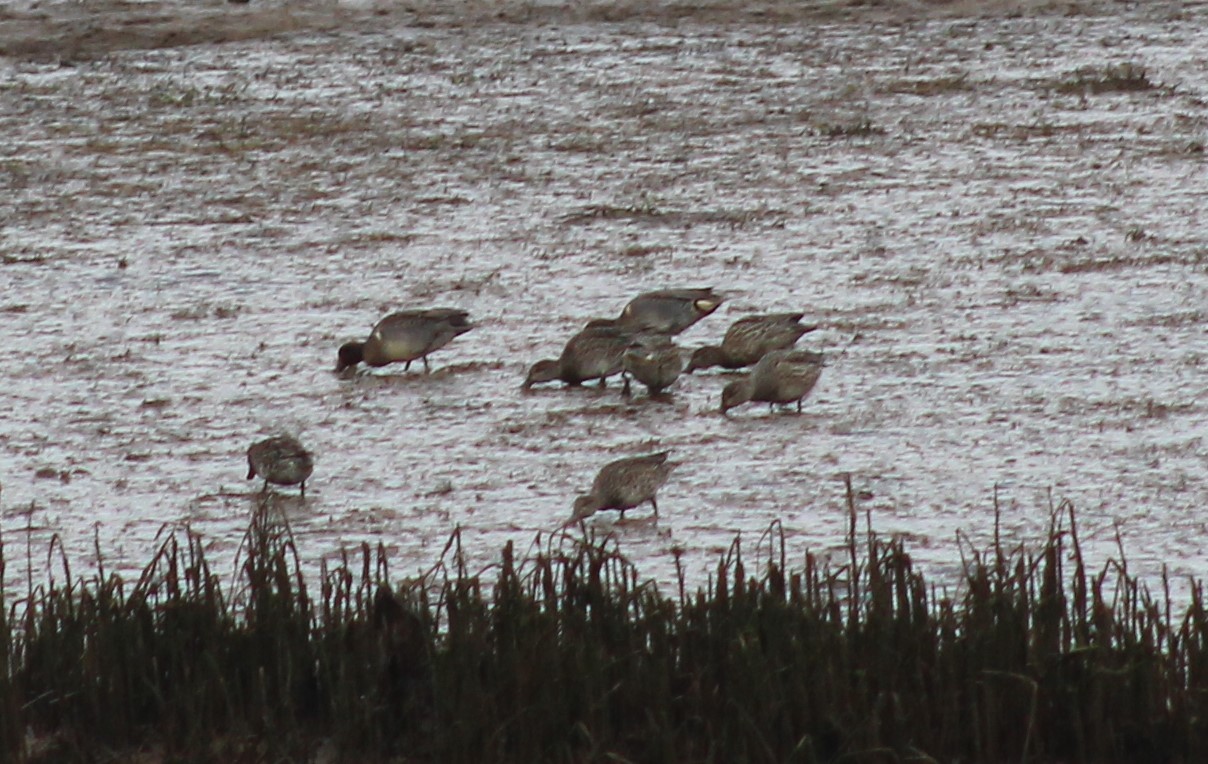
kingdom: Animalia
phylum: Chordata
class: Aves
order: Anseriformes
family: Anatidae
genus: Anas
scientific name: Anas carolinensis
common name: Green-winged teal
